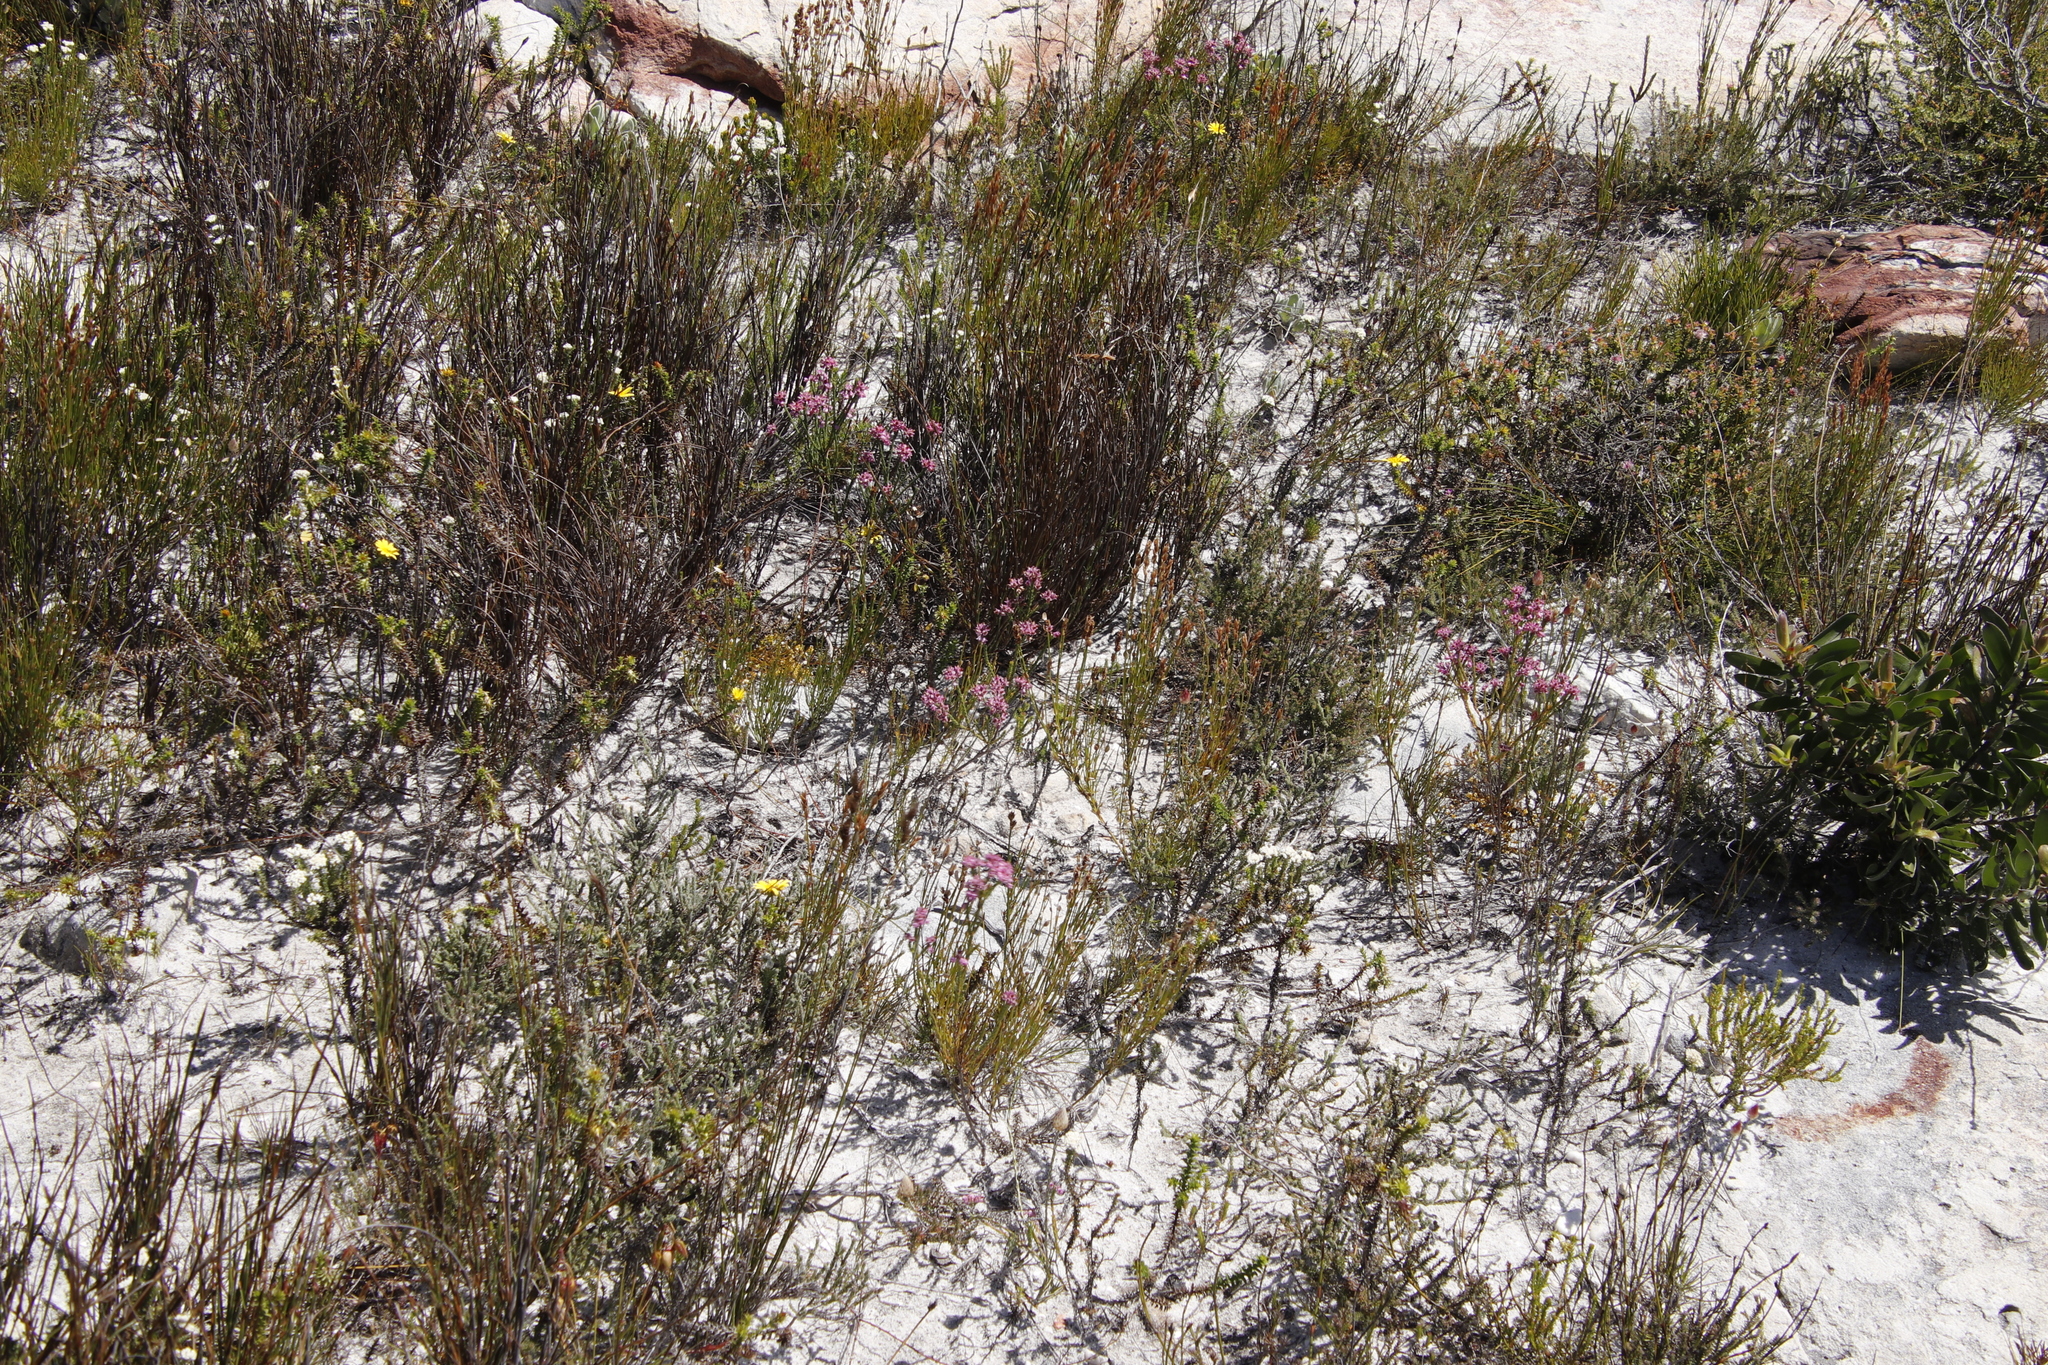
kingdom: Plantae
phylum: Tracheophyta
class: Magnoliopsida
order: Ericales
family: Ericaceae
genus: Erica
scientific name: Erica corifolia
